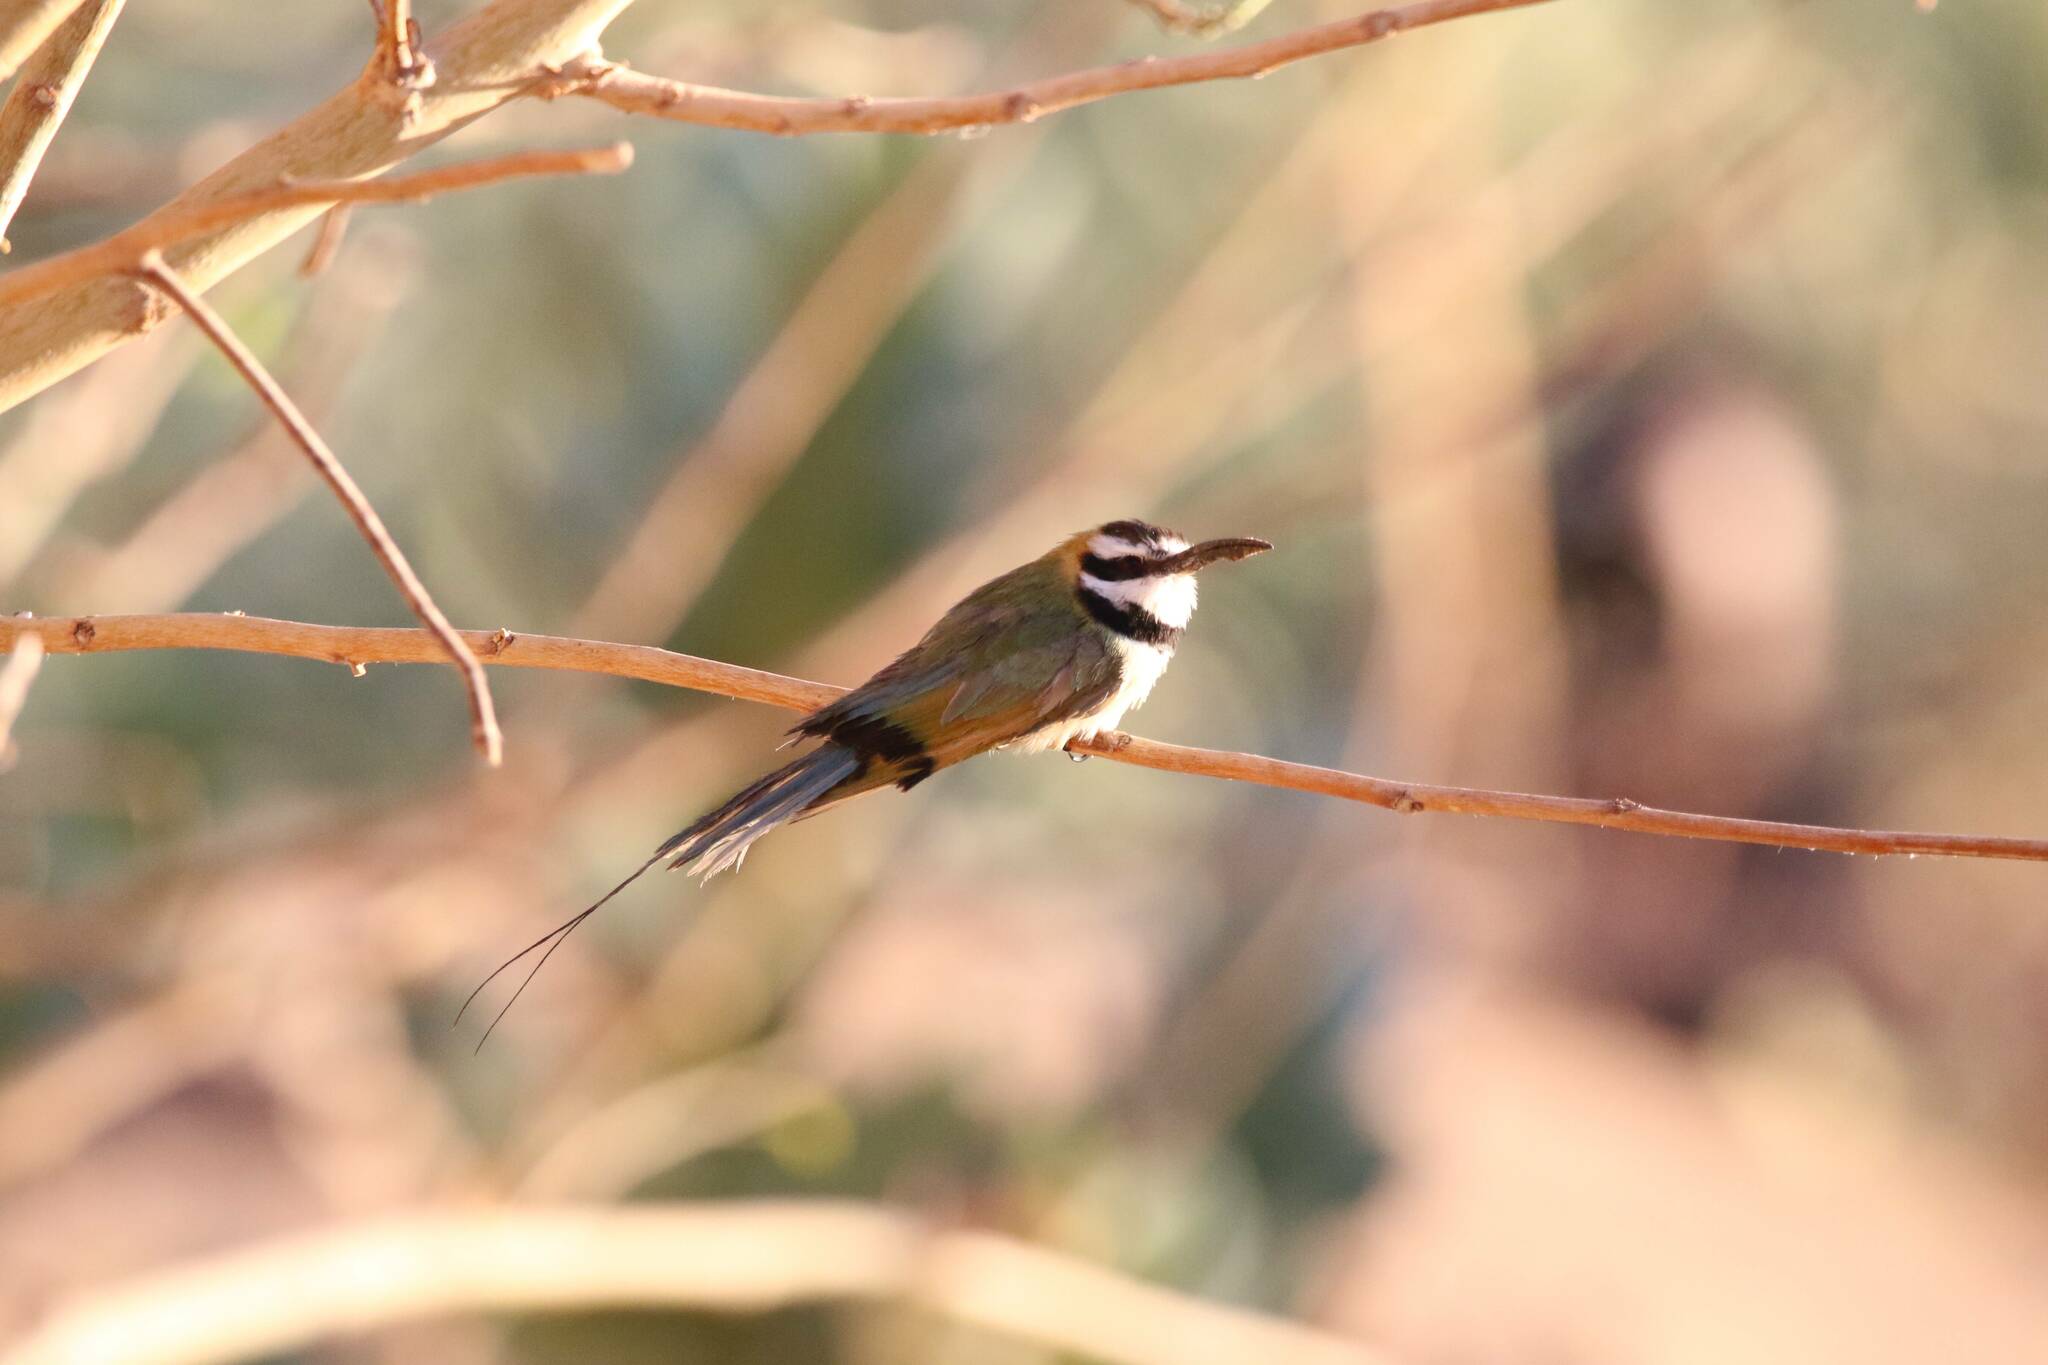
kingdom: Animalia
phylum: Chordata
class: Aves
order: Coraciiformes
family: Meropidae
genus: Merops
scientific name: Merops albicollis
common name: White-throated bee-eater
